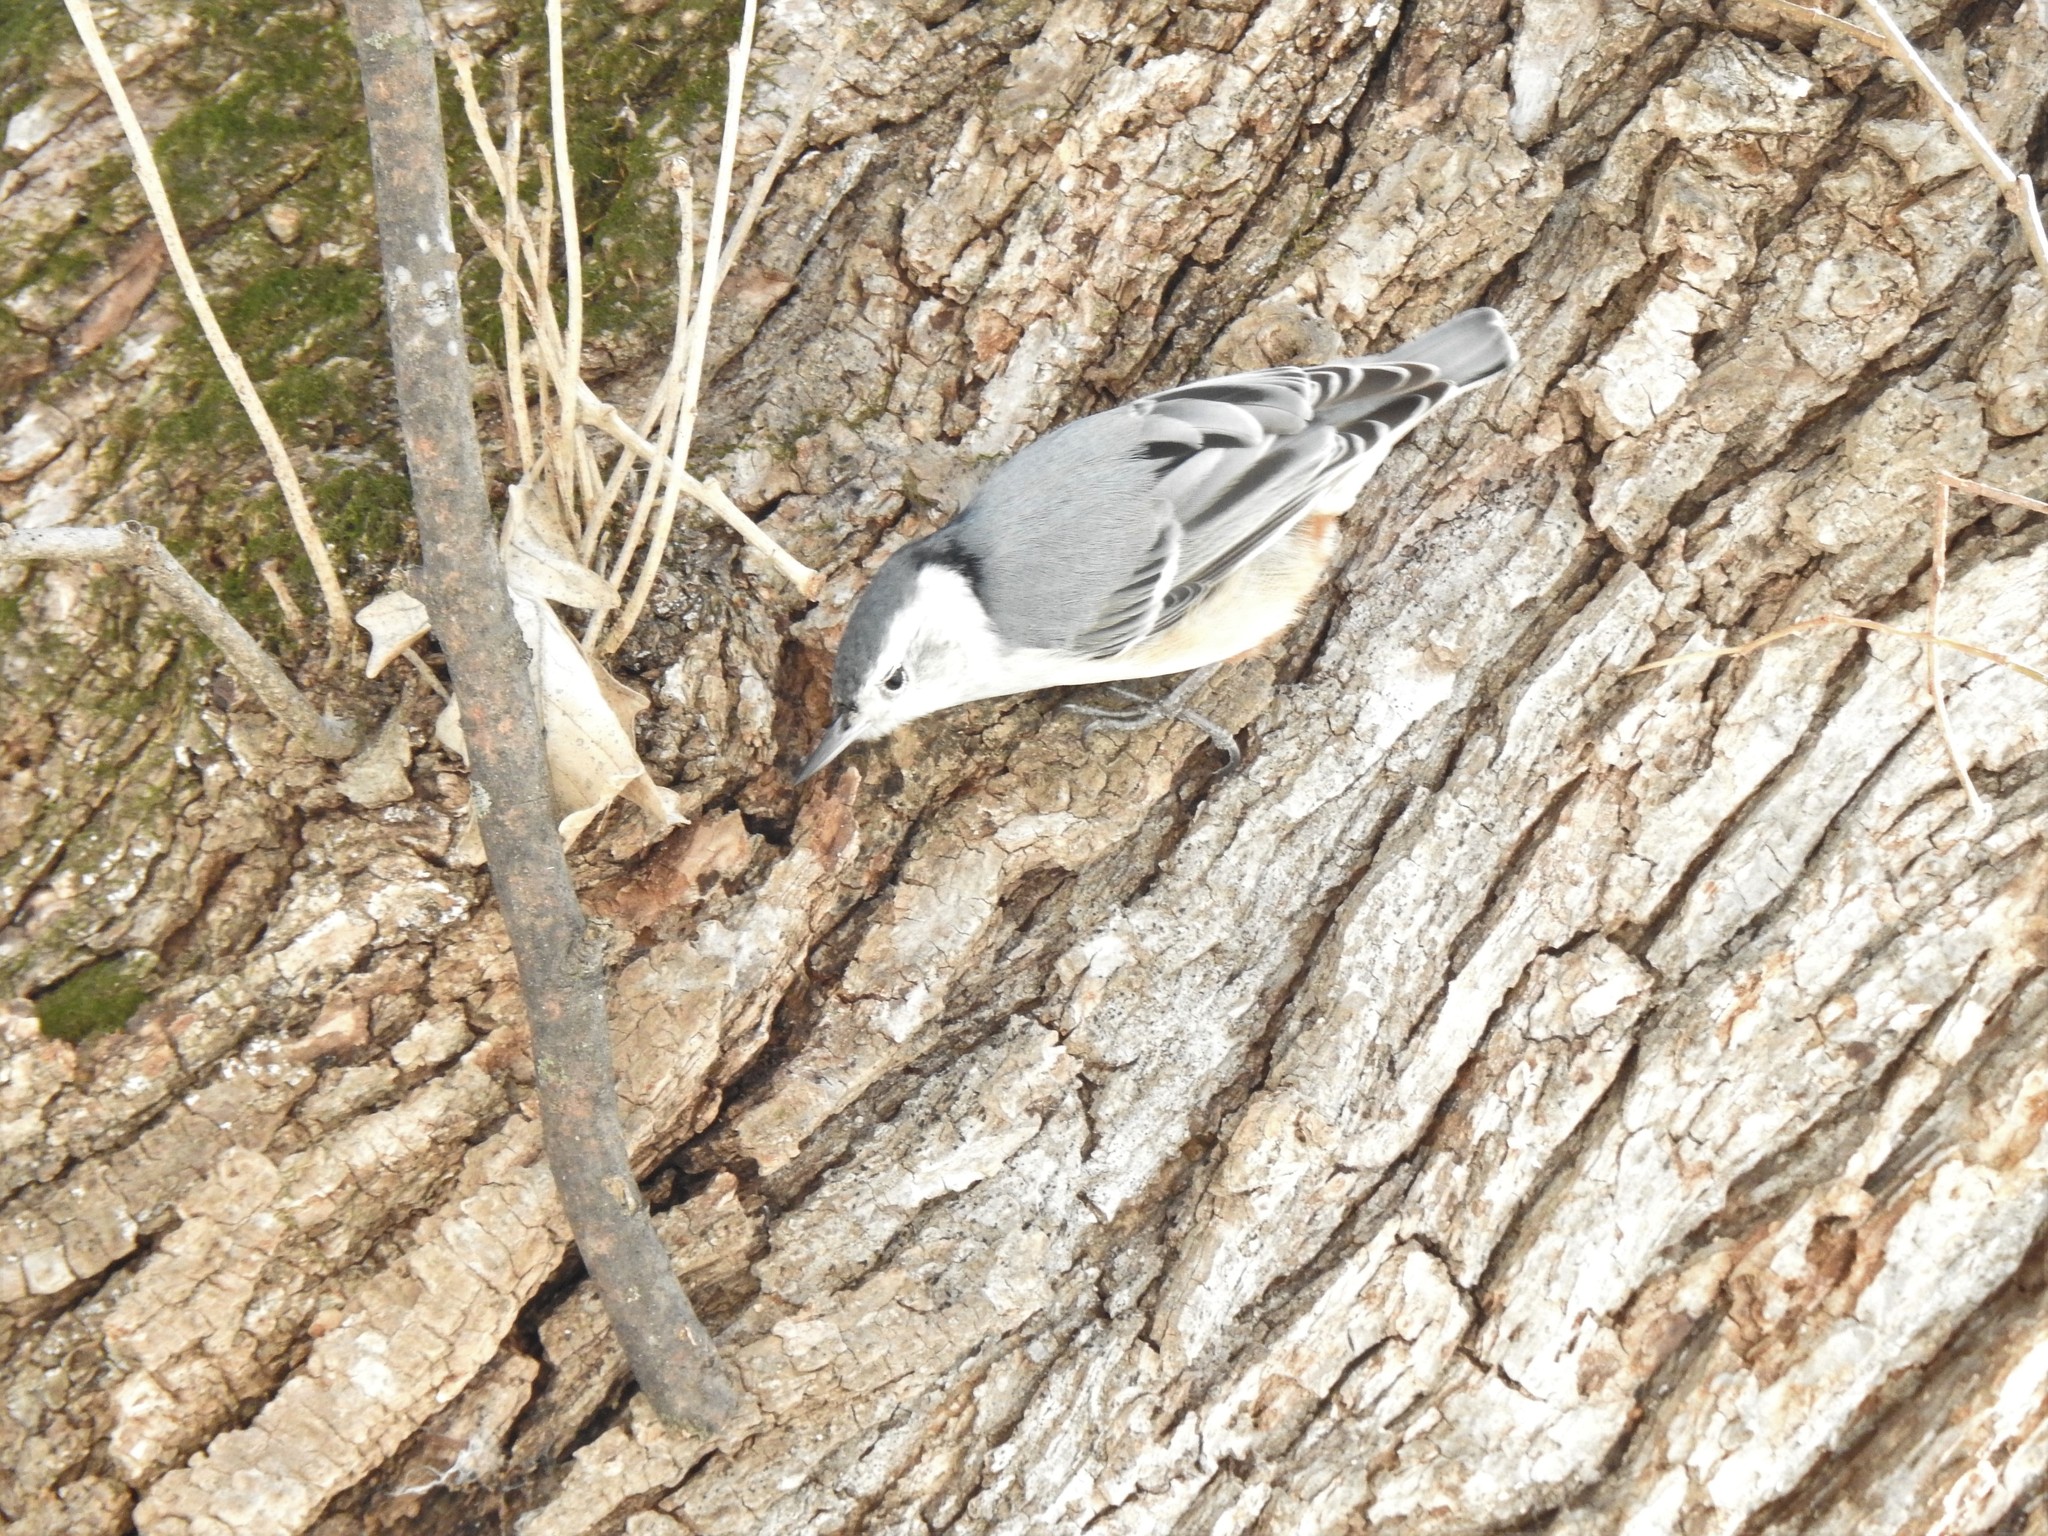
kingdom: Animalia
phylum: Chordata
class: Aves
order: Passeriformes
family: Sittidae
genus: Sitta
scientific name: Sitta carolinensis
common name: White-breasted nuthatch
